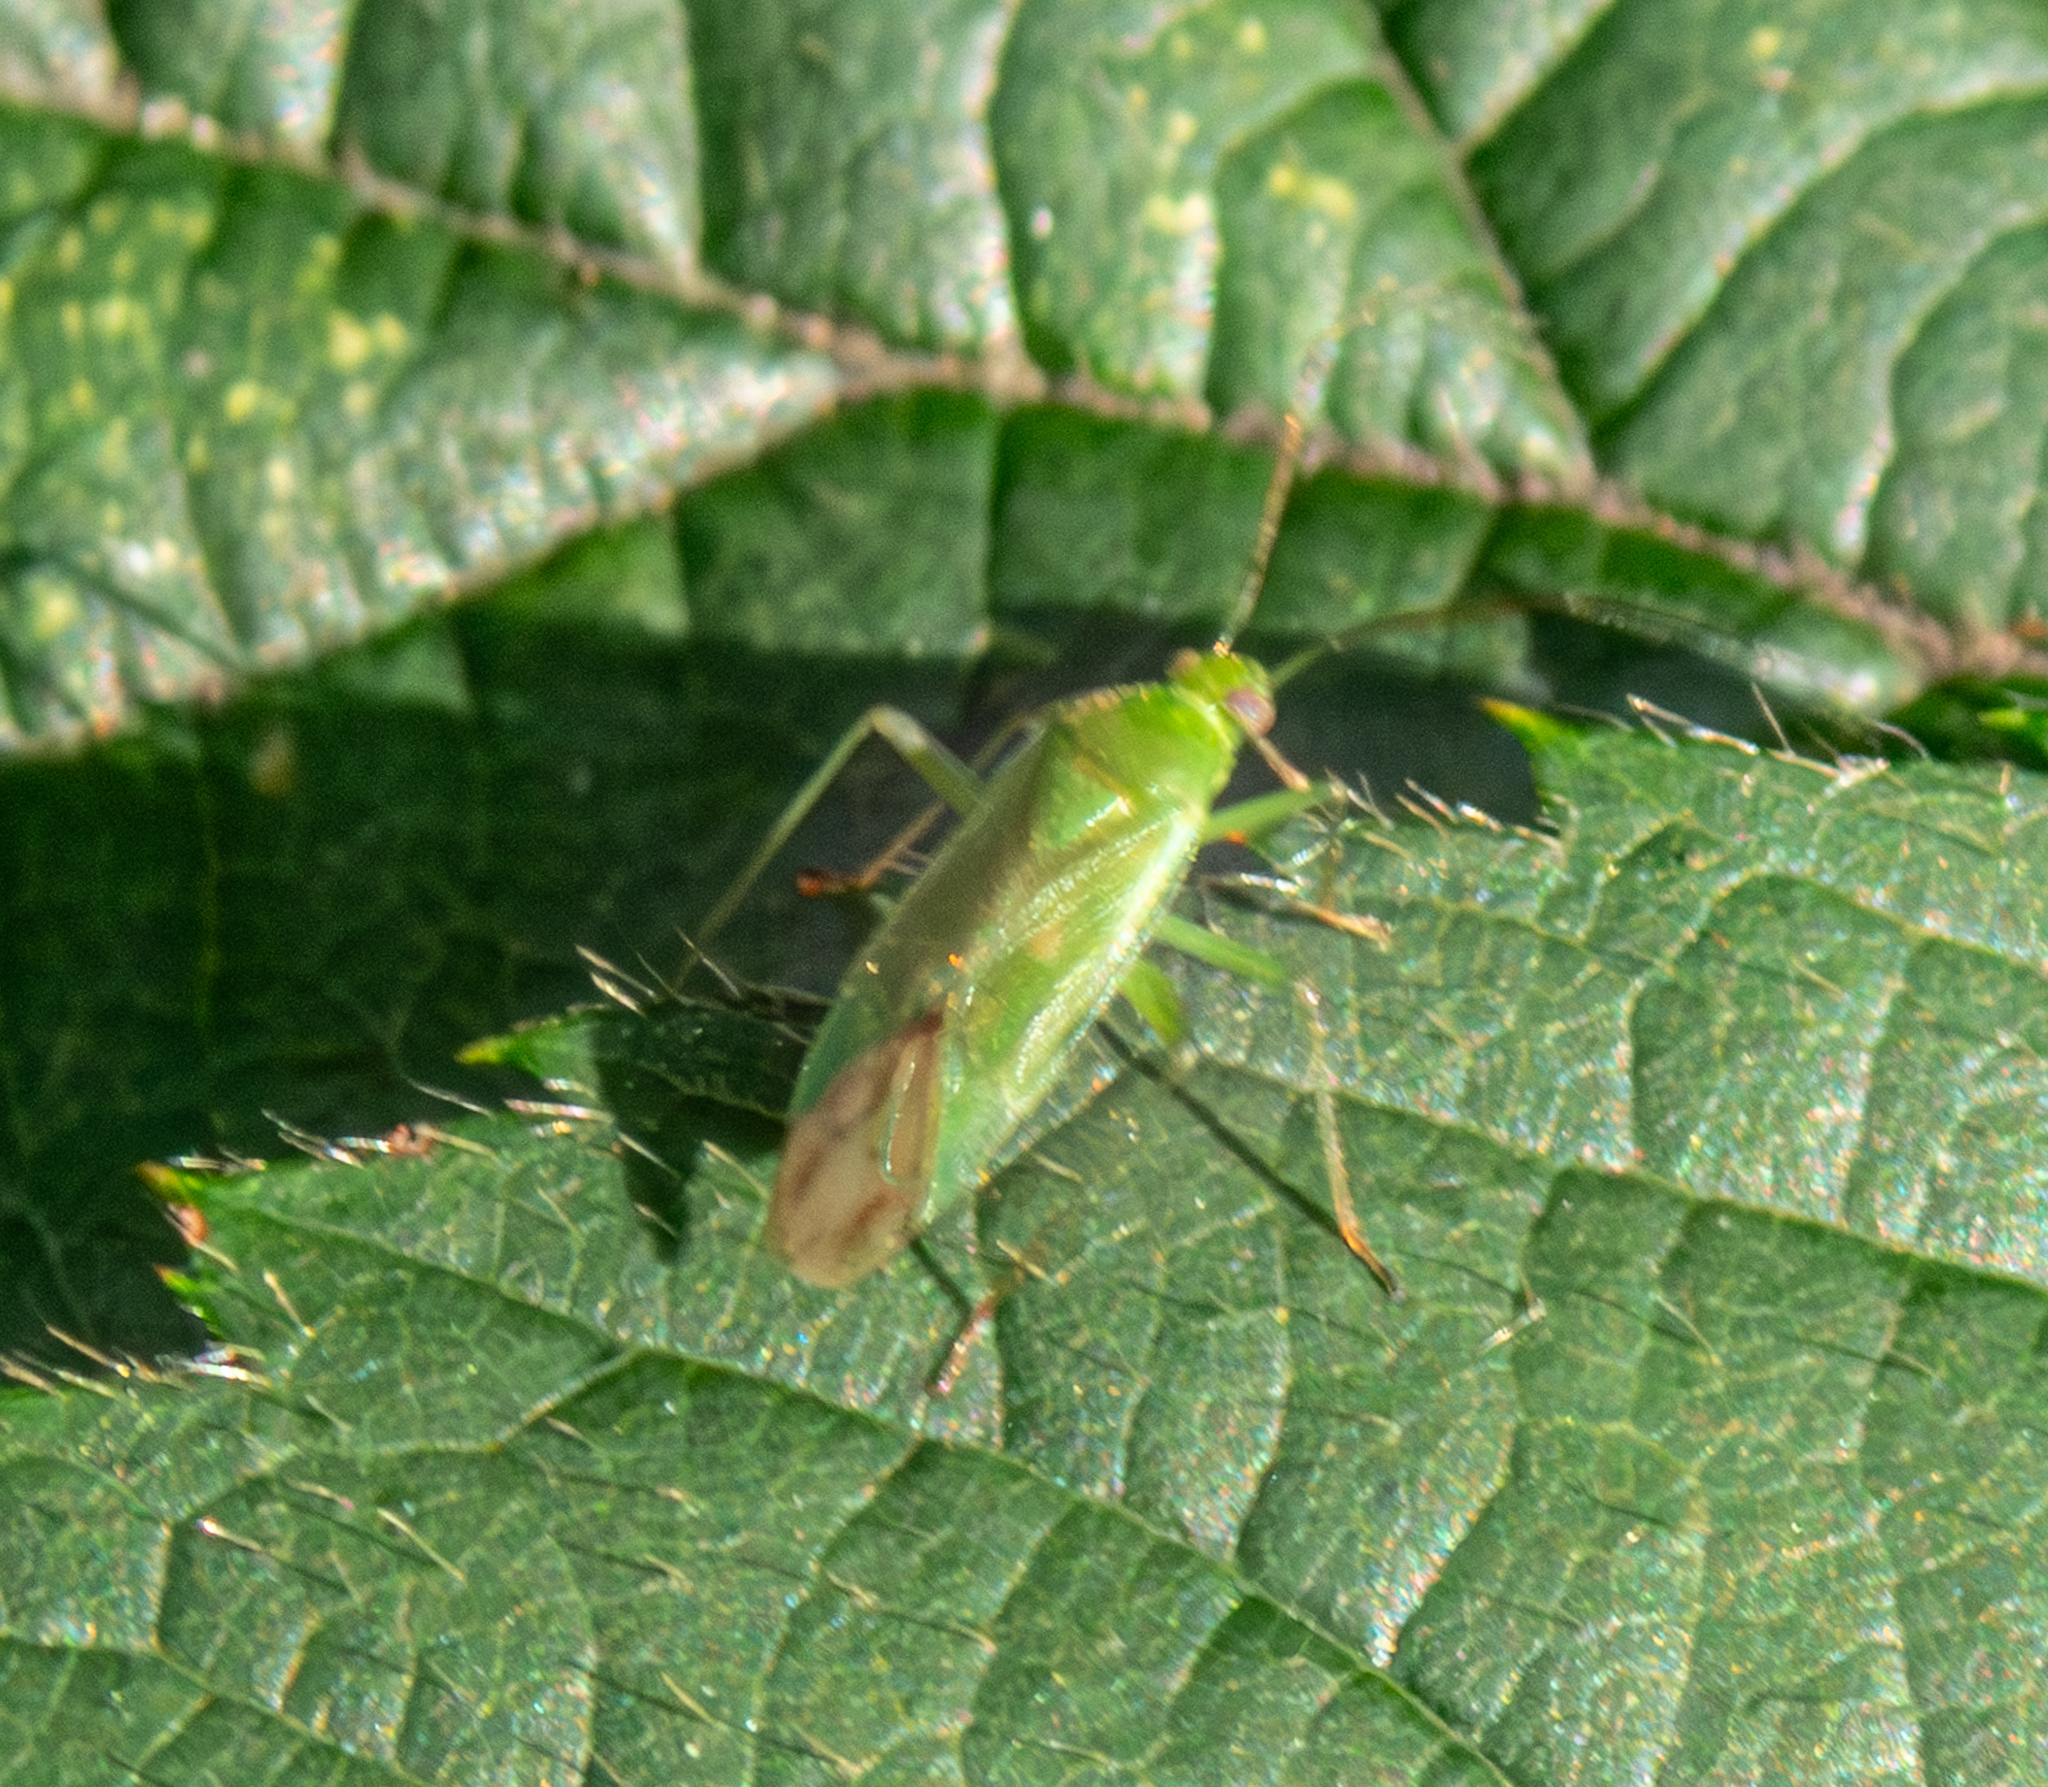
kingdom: Animalia
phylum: Arthropoda
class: Insecta
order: Hemiptera
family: Miridae
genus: Lygocoris
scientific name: Lygocoris pabulinus
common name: Common green capsid
